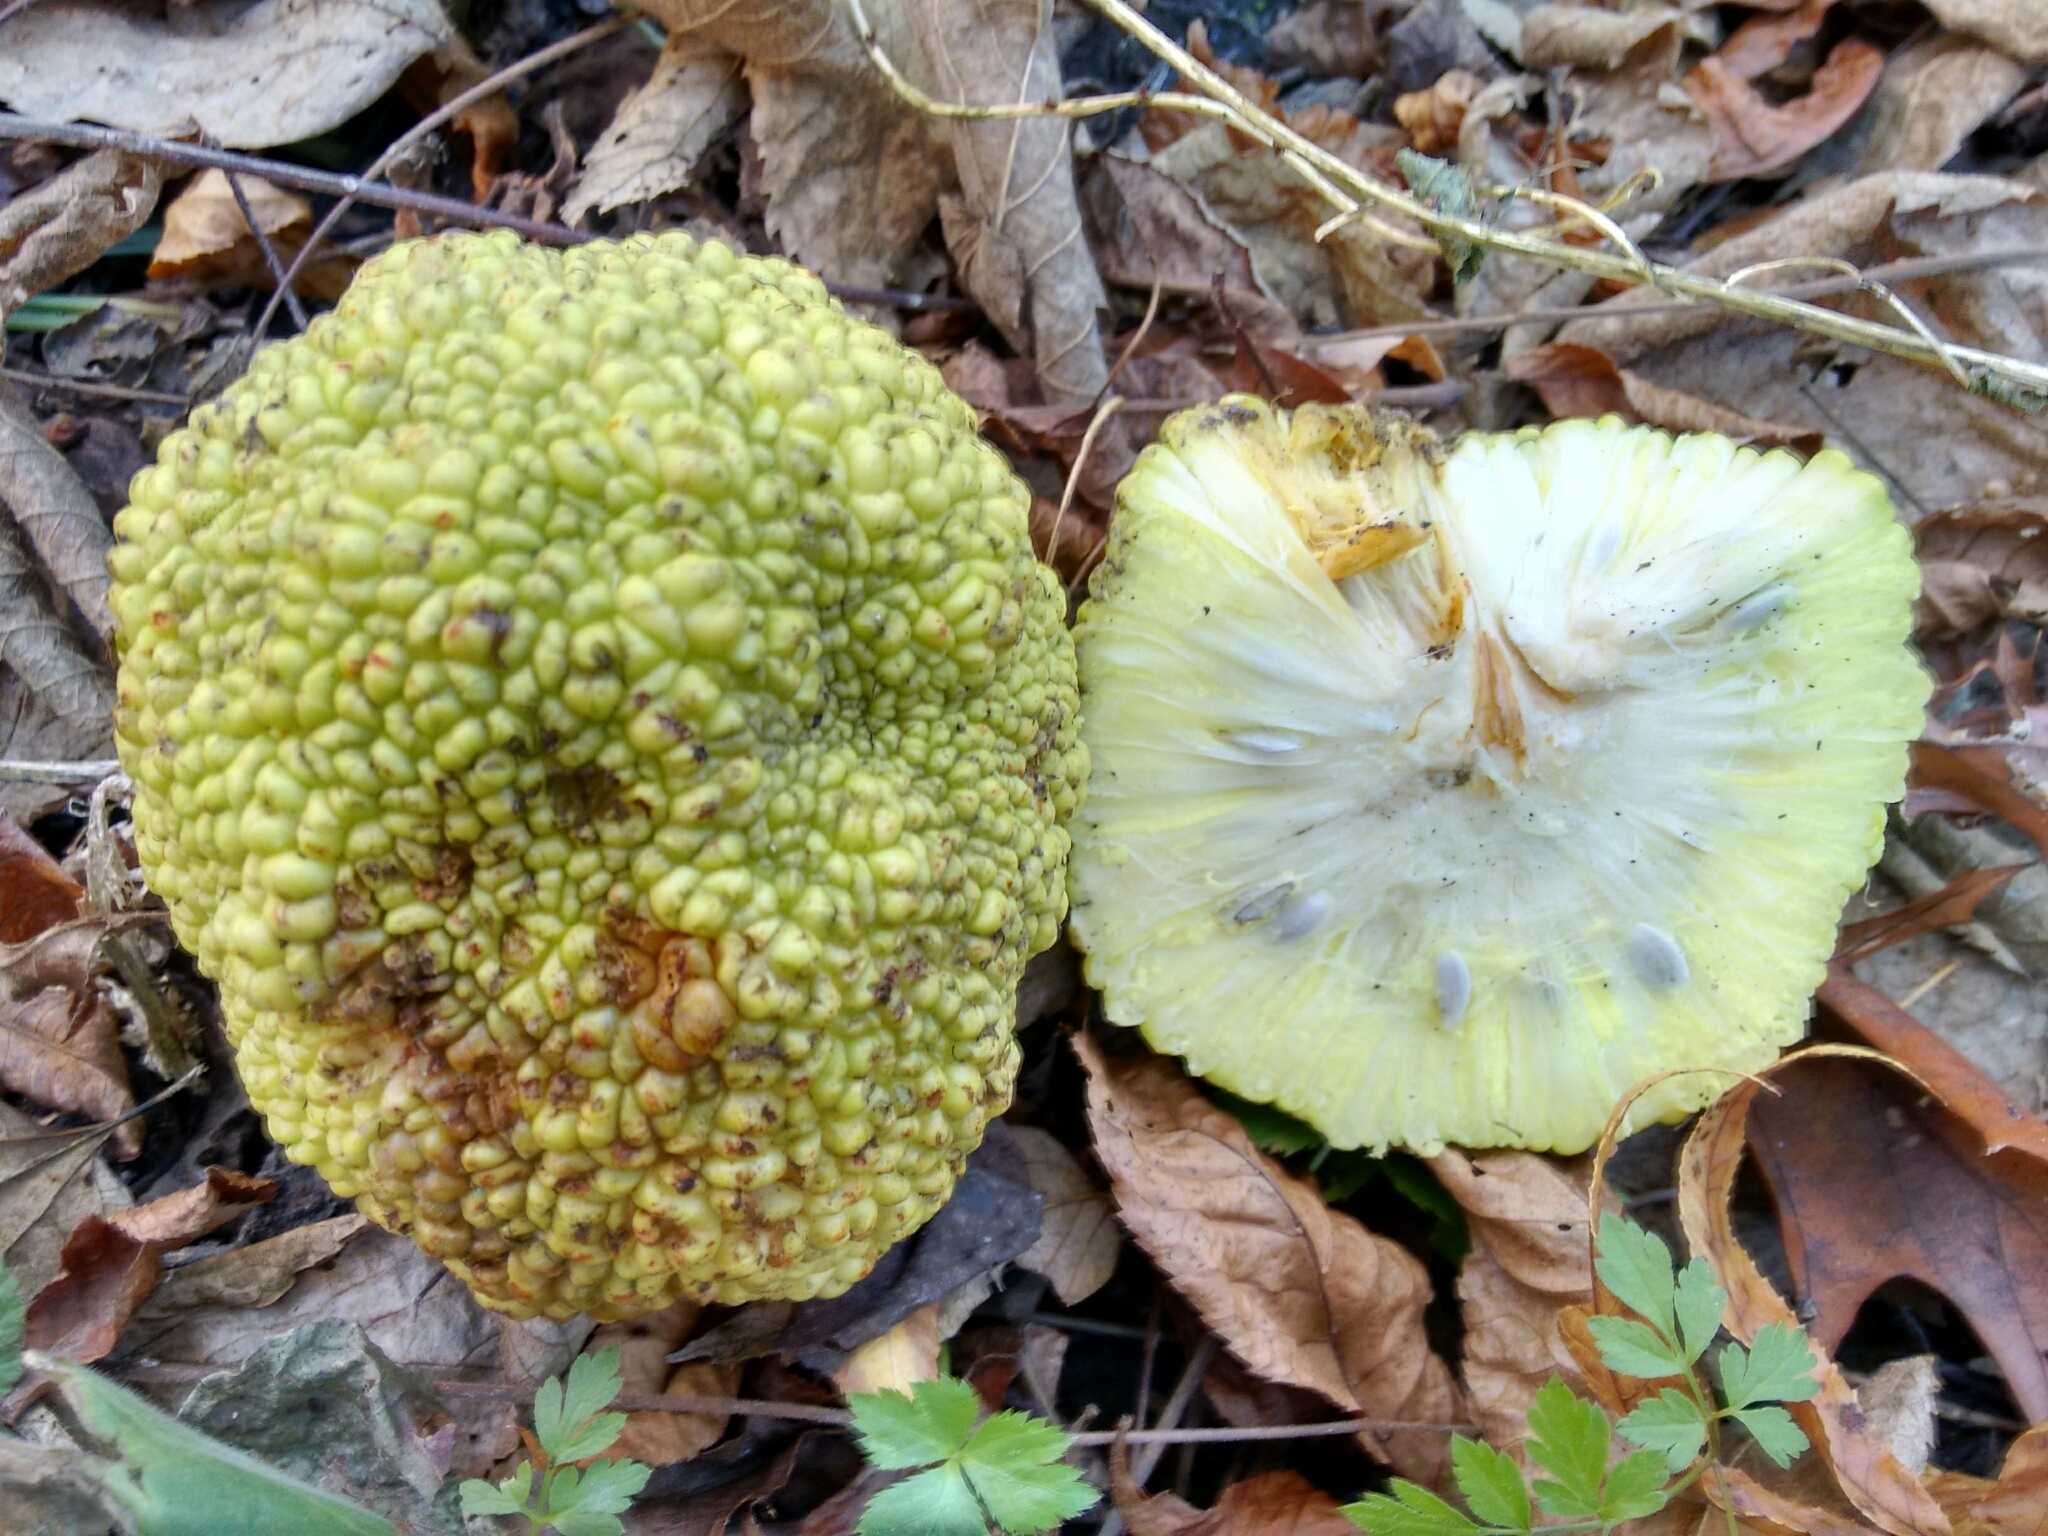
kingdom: Plantae
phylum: Tracheophyta
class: Magnoliopsida
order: Rosales
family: Moraceae
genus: Maclura
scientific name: Maclura pomifera
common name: Osage-orange
